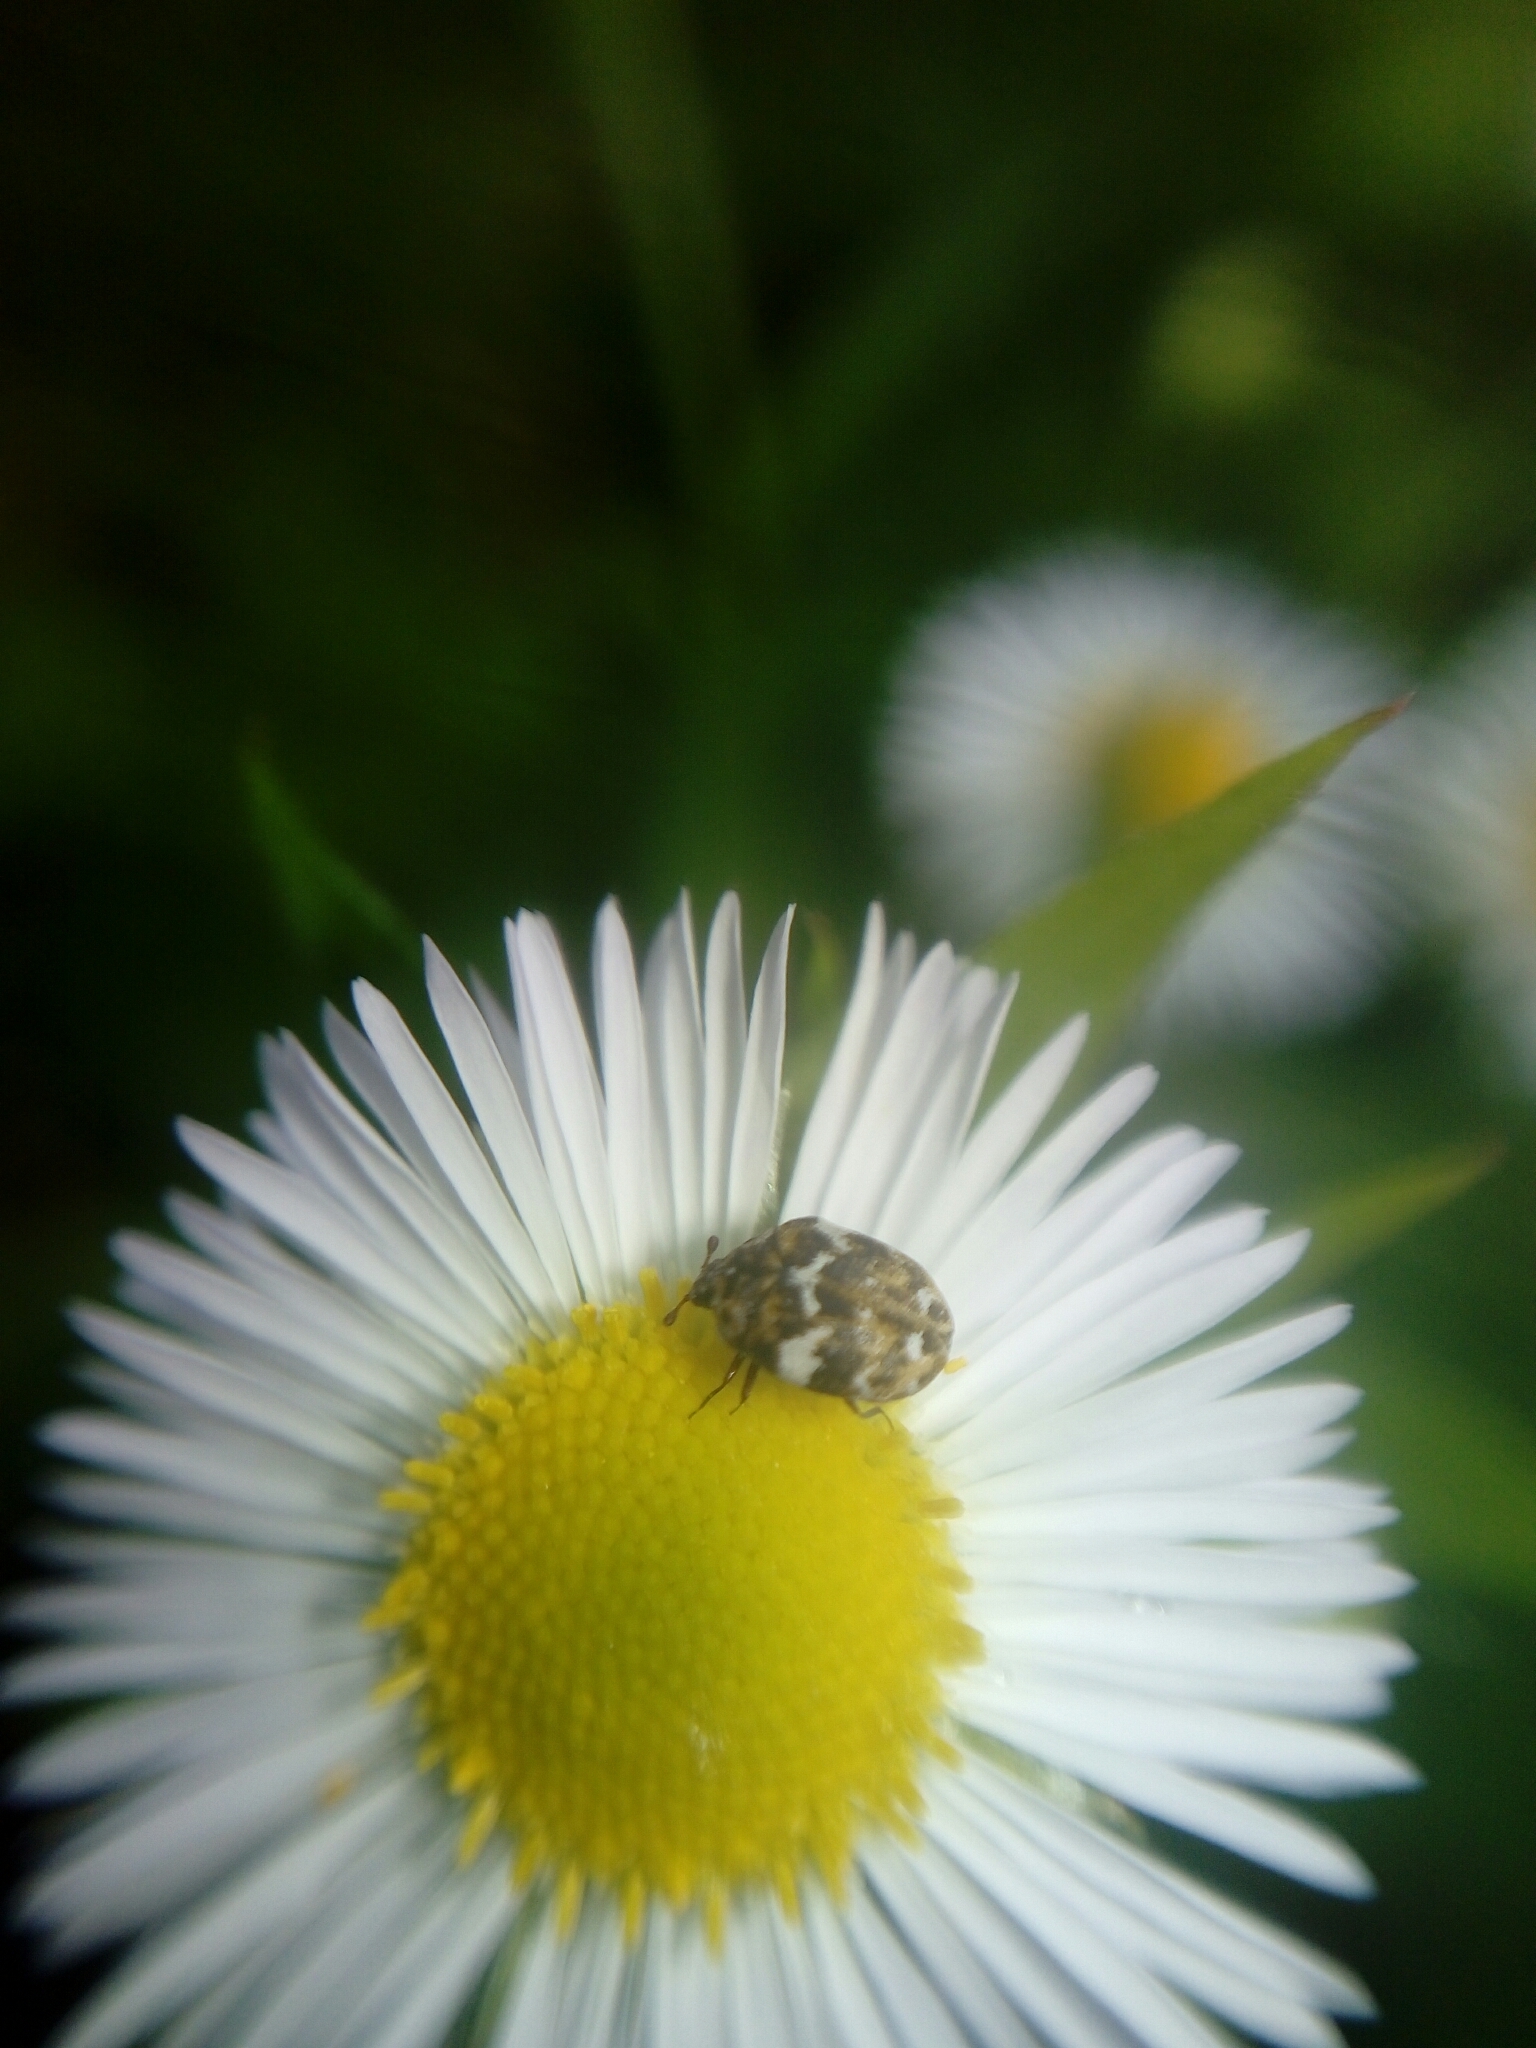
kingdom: Animalia
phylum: Arthropoda
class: Insecta
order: Coleoptera
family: Dermestidae
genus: Anthrenus
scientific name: Anthrenus angustefasciatus
